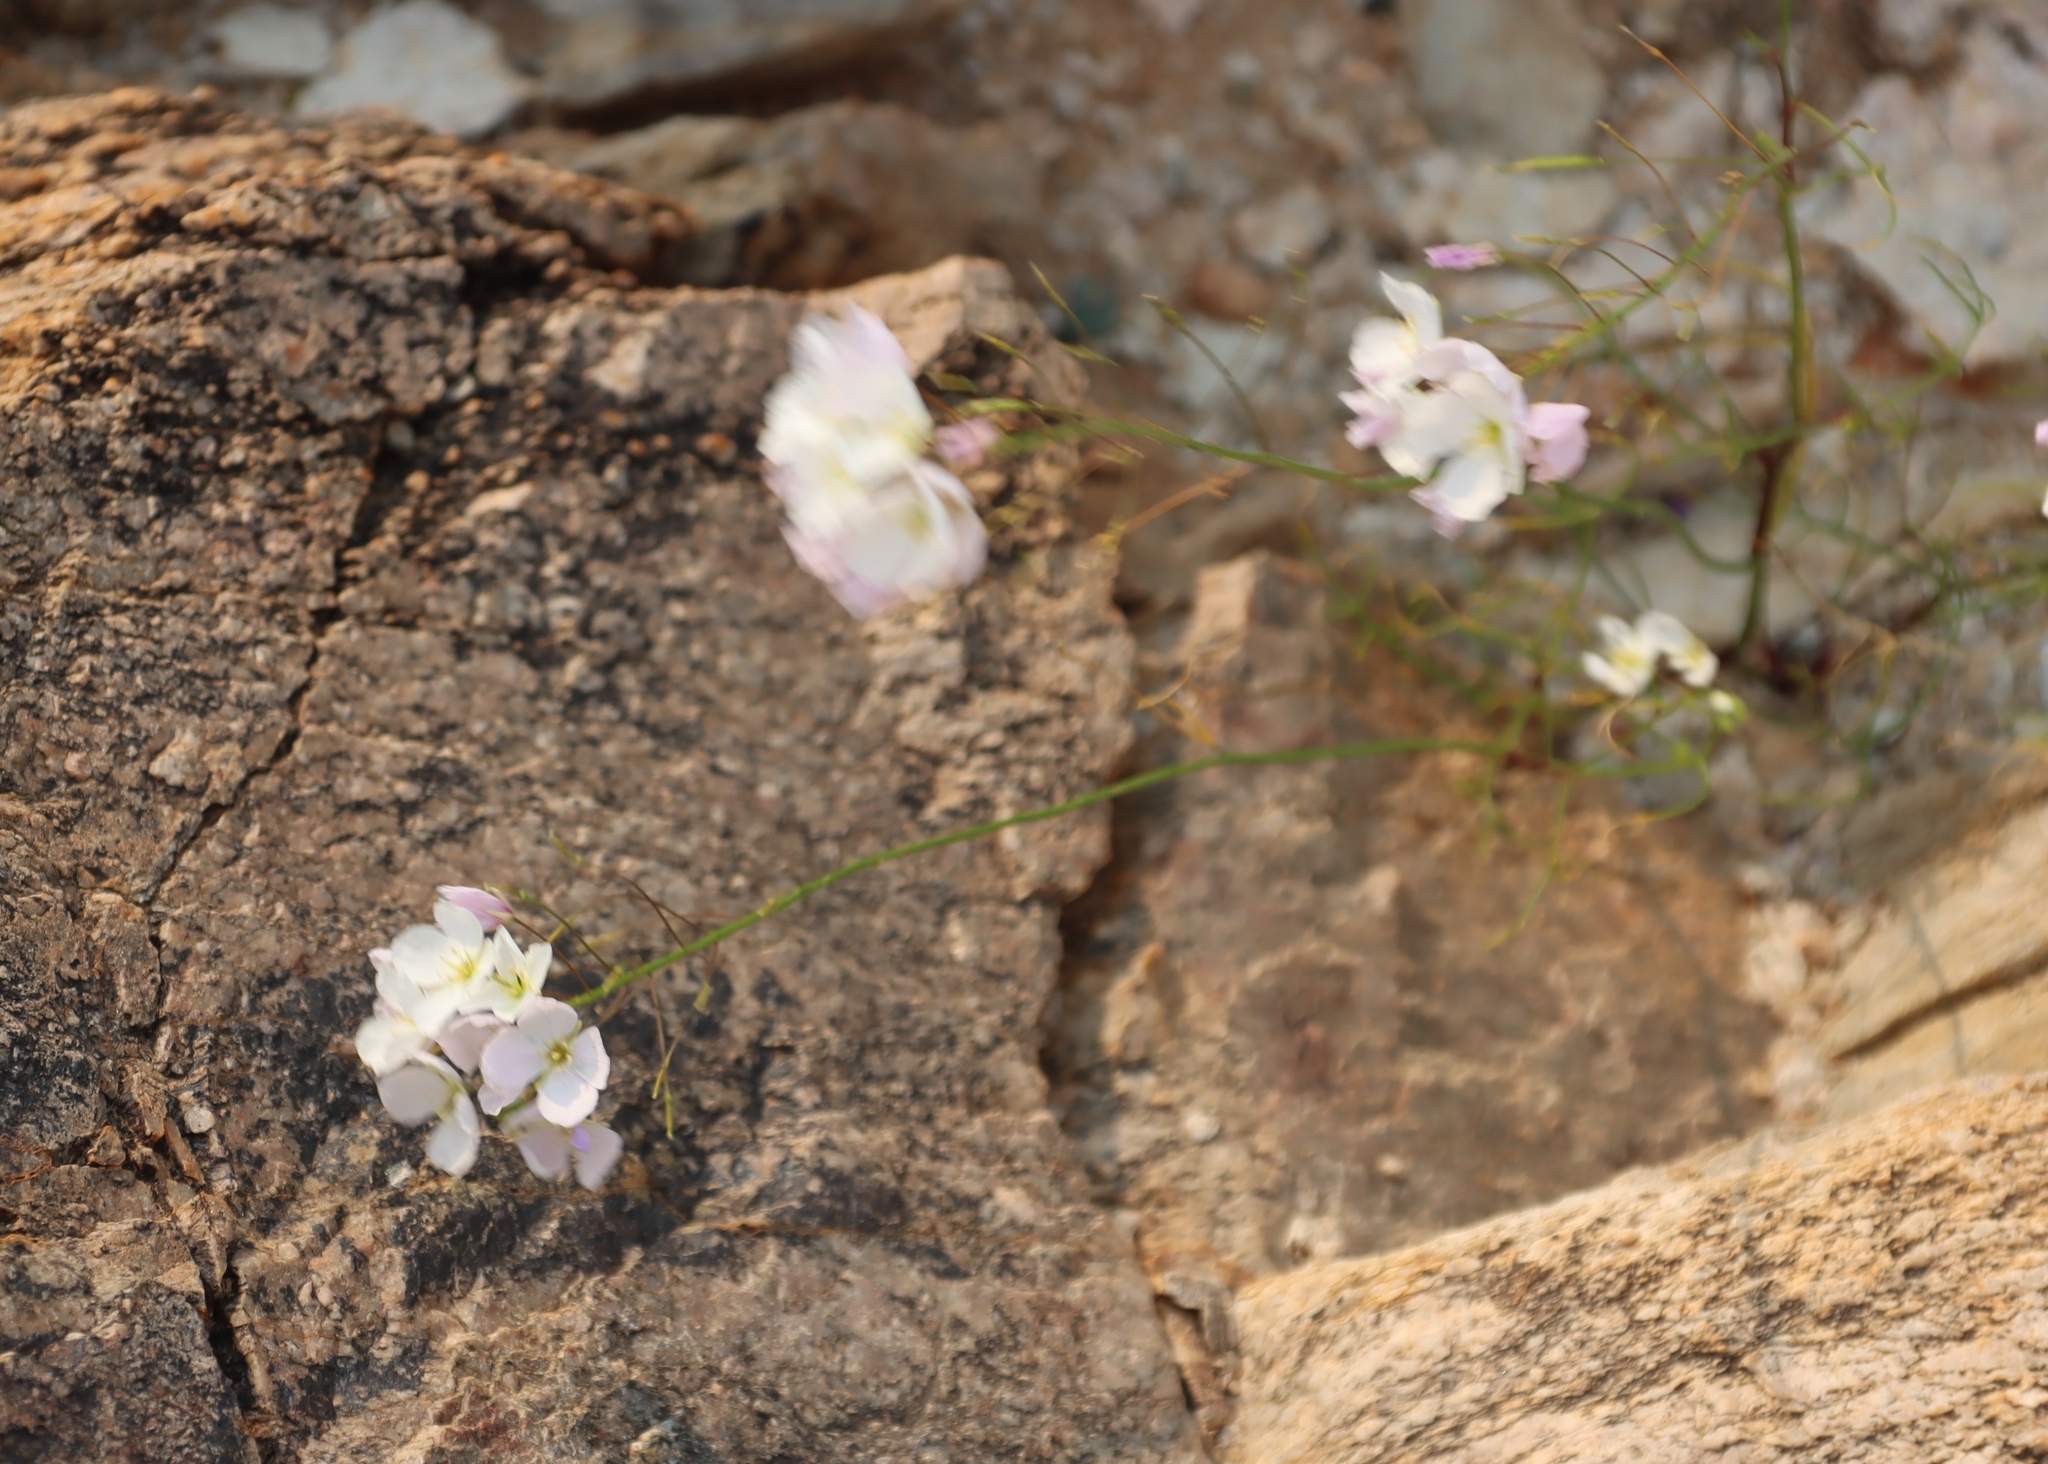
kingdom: Plantae
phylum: Tracheophyta
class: Magnoliopsida
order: Brassicales
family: Brassicaceae
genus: Heliophila
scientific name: Heliophila variabilis
